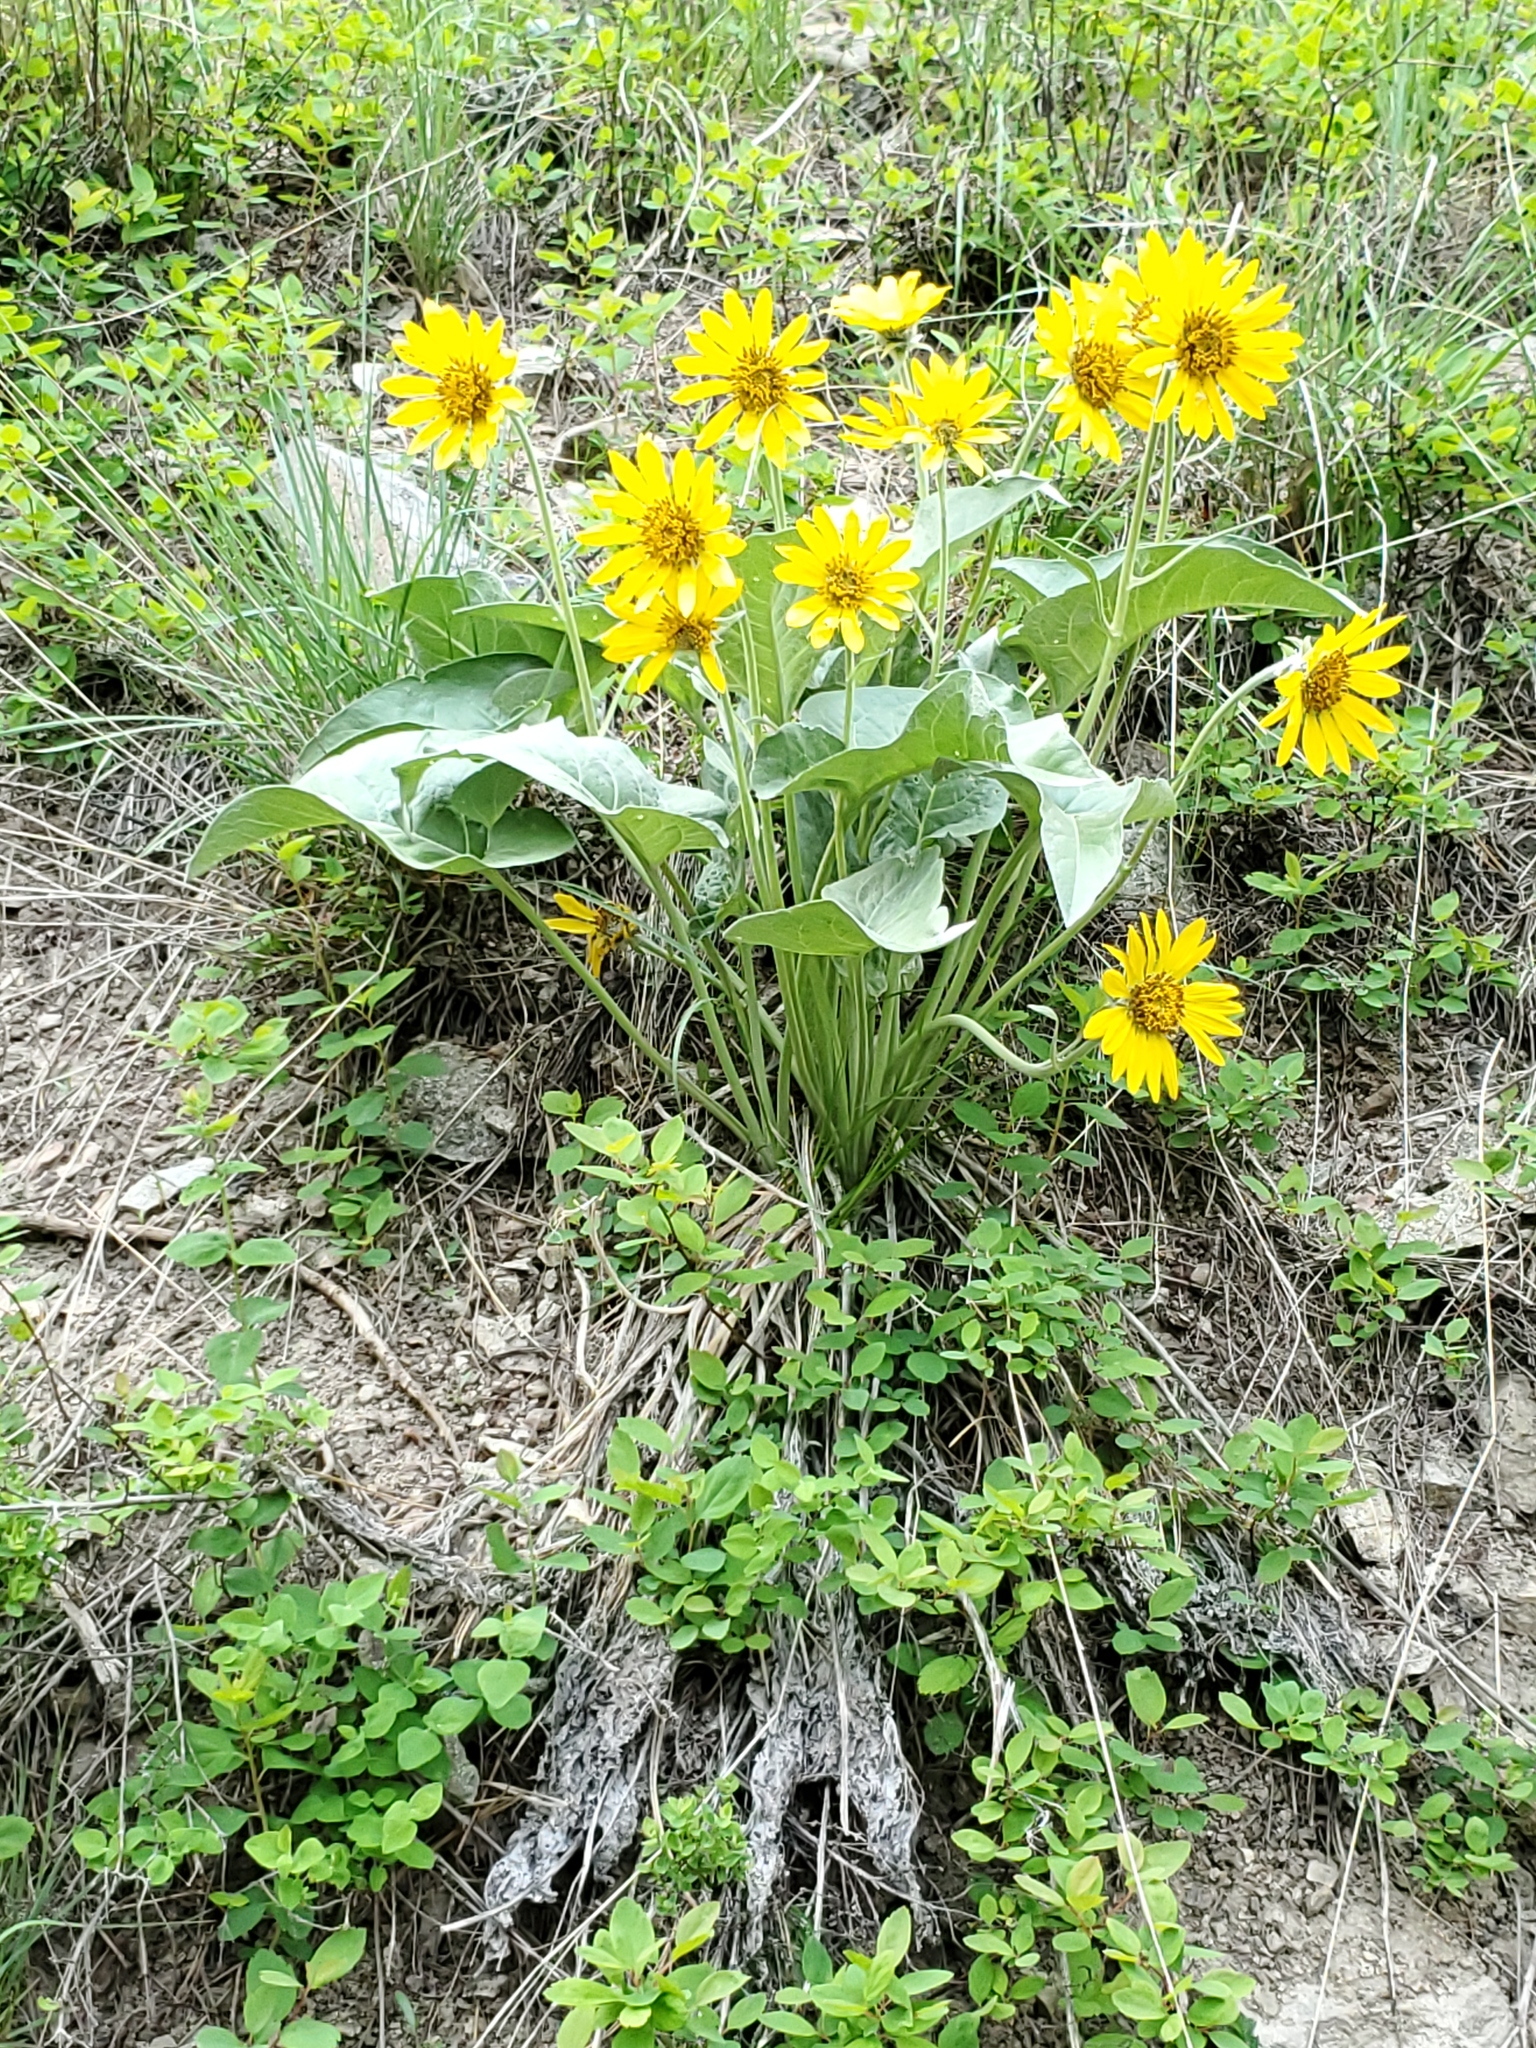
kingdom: Plantae
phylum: Tracheophyta
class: Magnoliopsida
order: Asterales
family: Asteraceae
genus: Wyethia
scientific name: Wyethia sagittata
